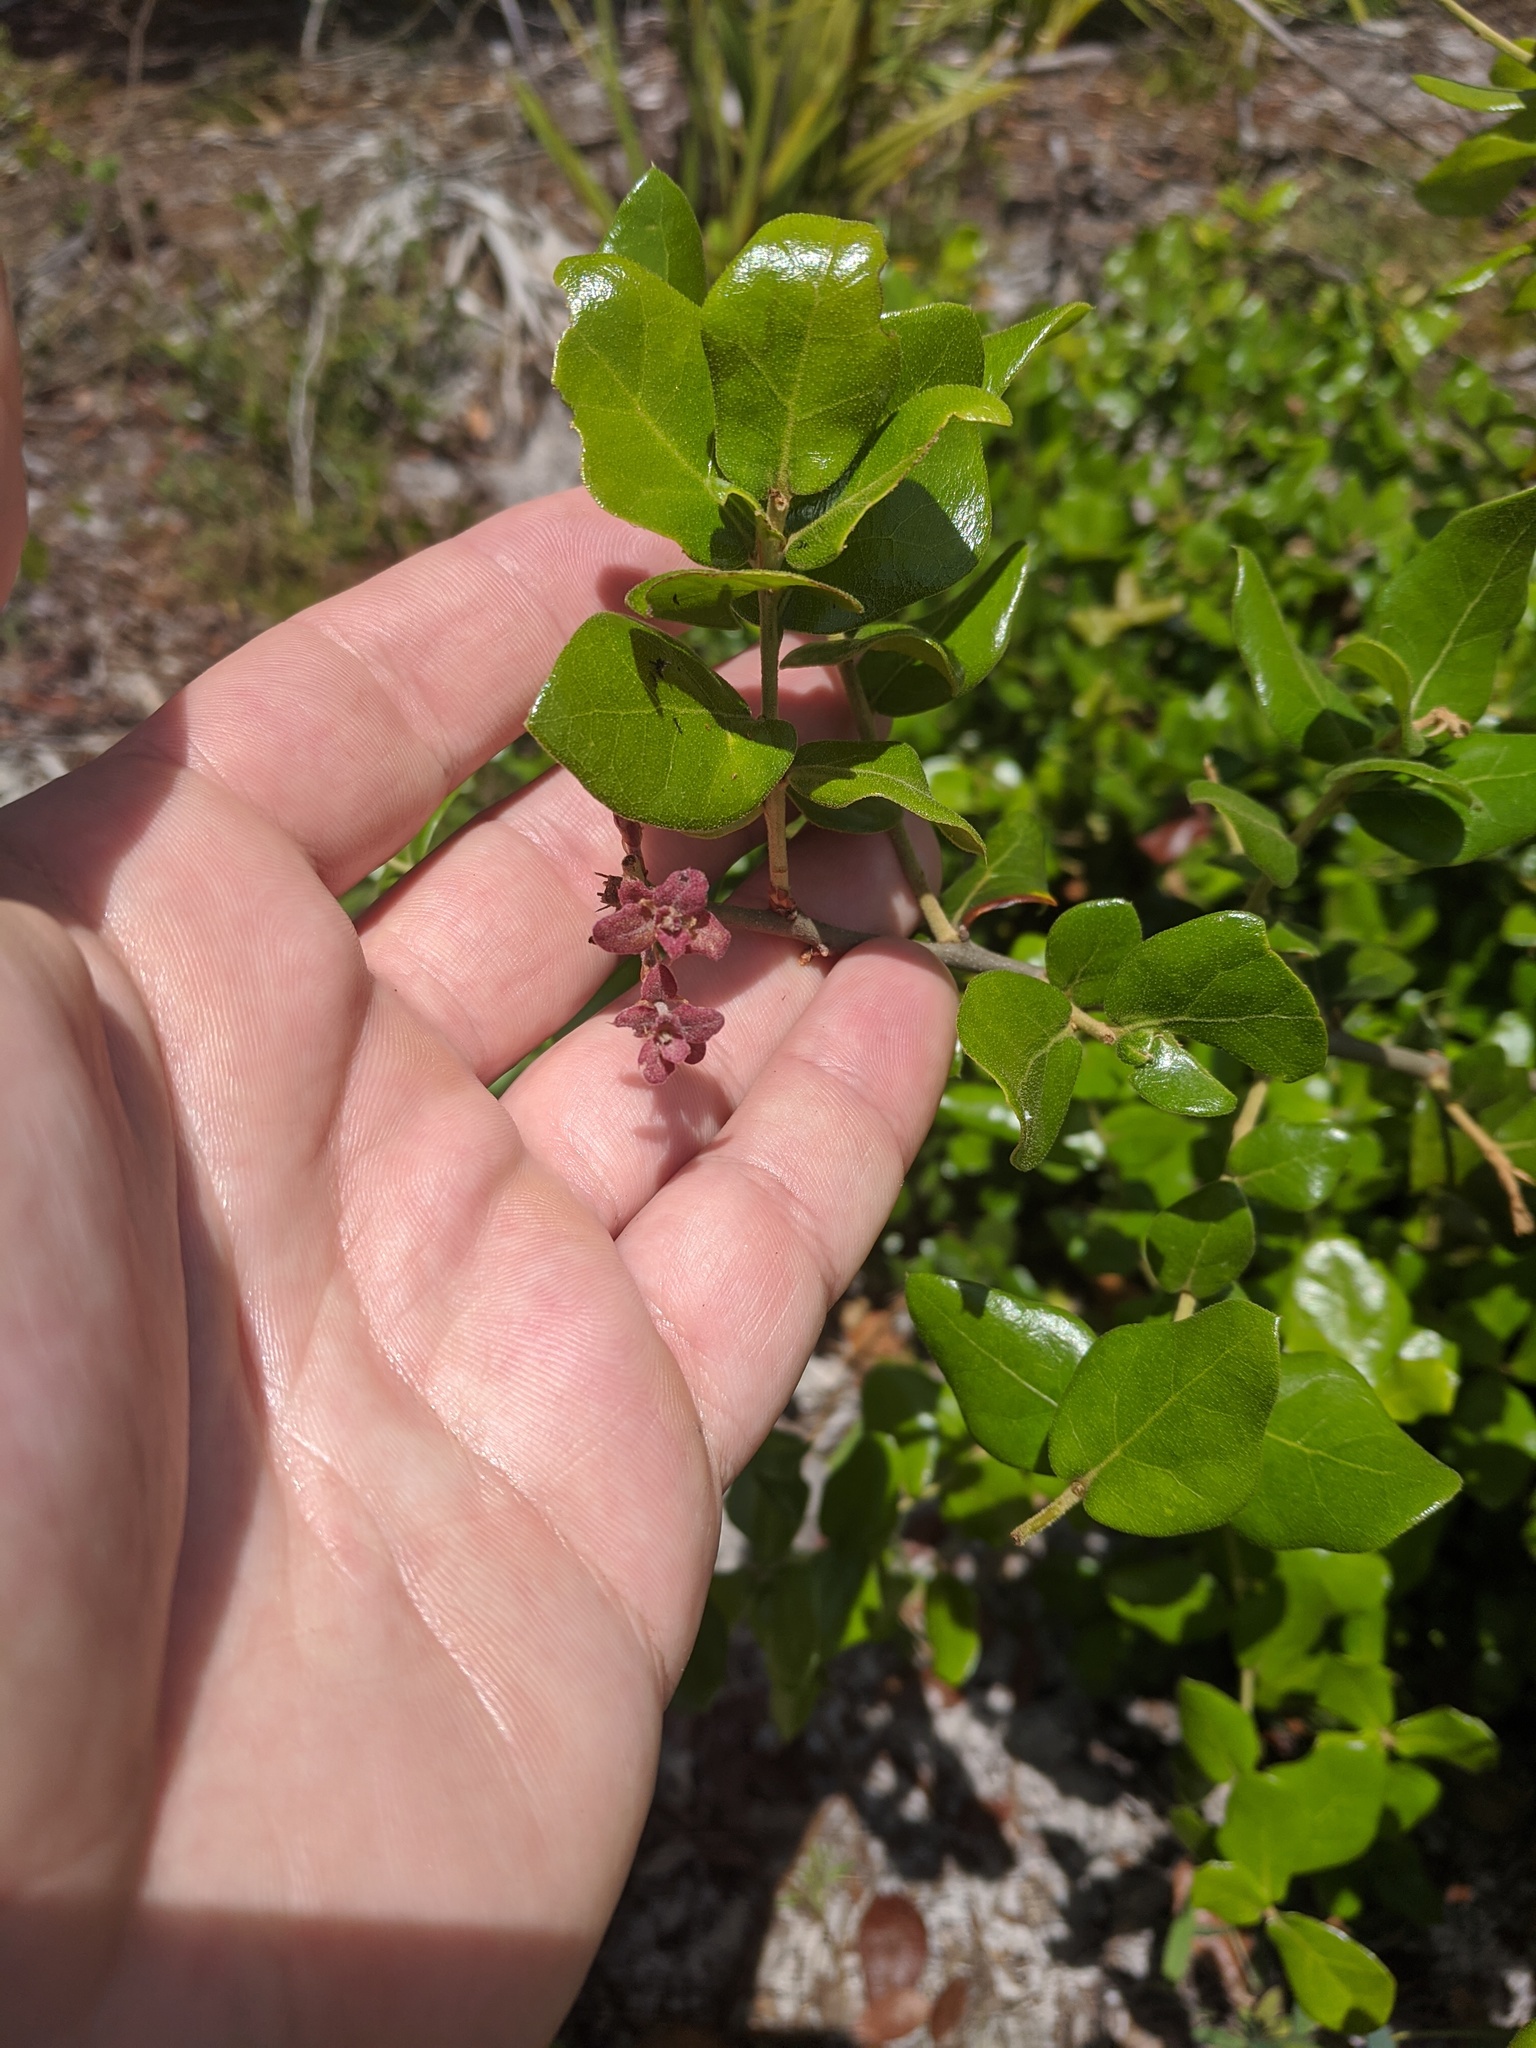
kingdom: Plantae
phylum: Tracheophyta
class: Magnoliopsida
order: Fagales
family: Fagaceae
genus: Quercus
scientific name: Quercus myrtifolia
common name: Myrtle oak
